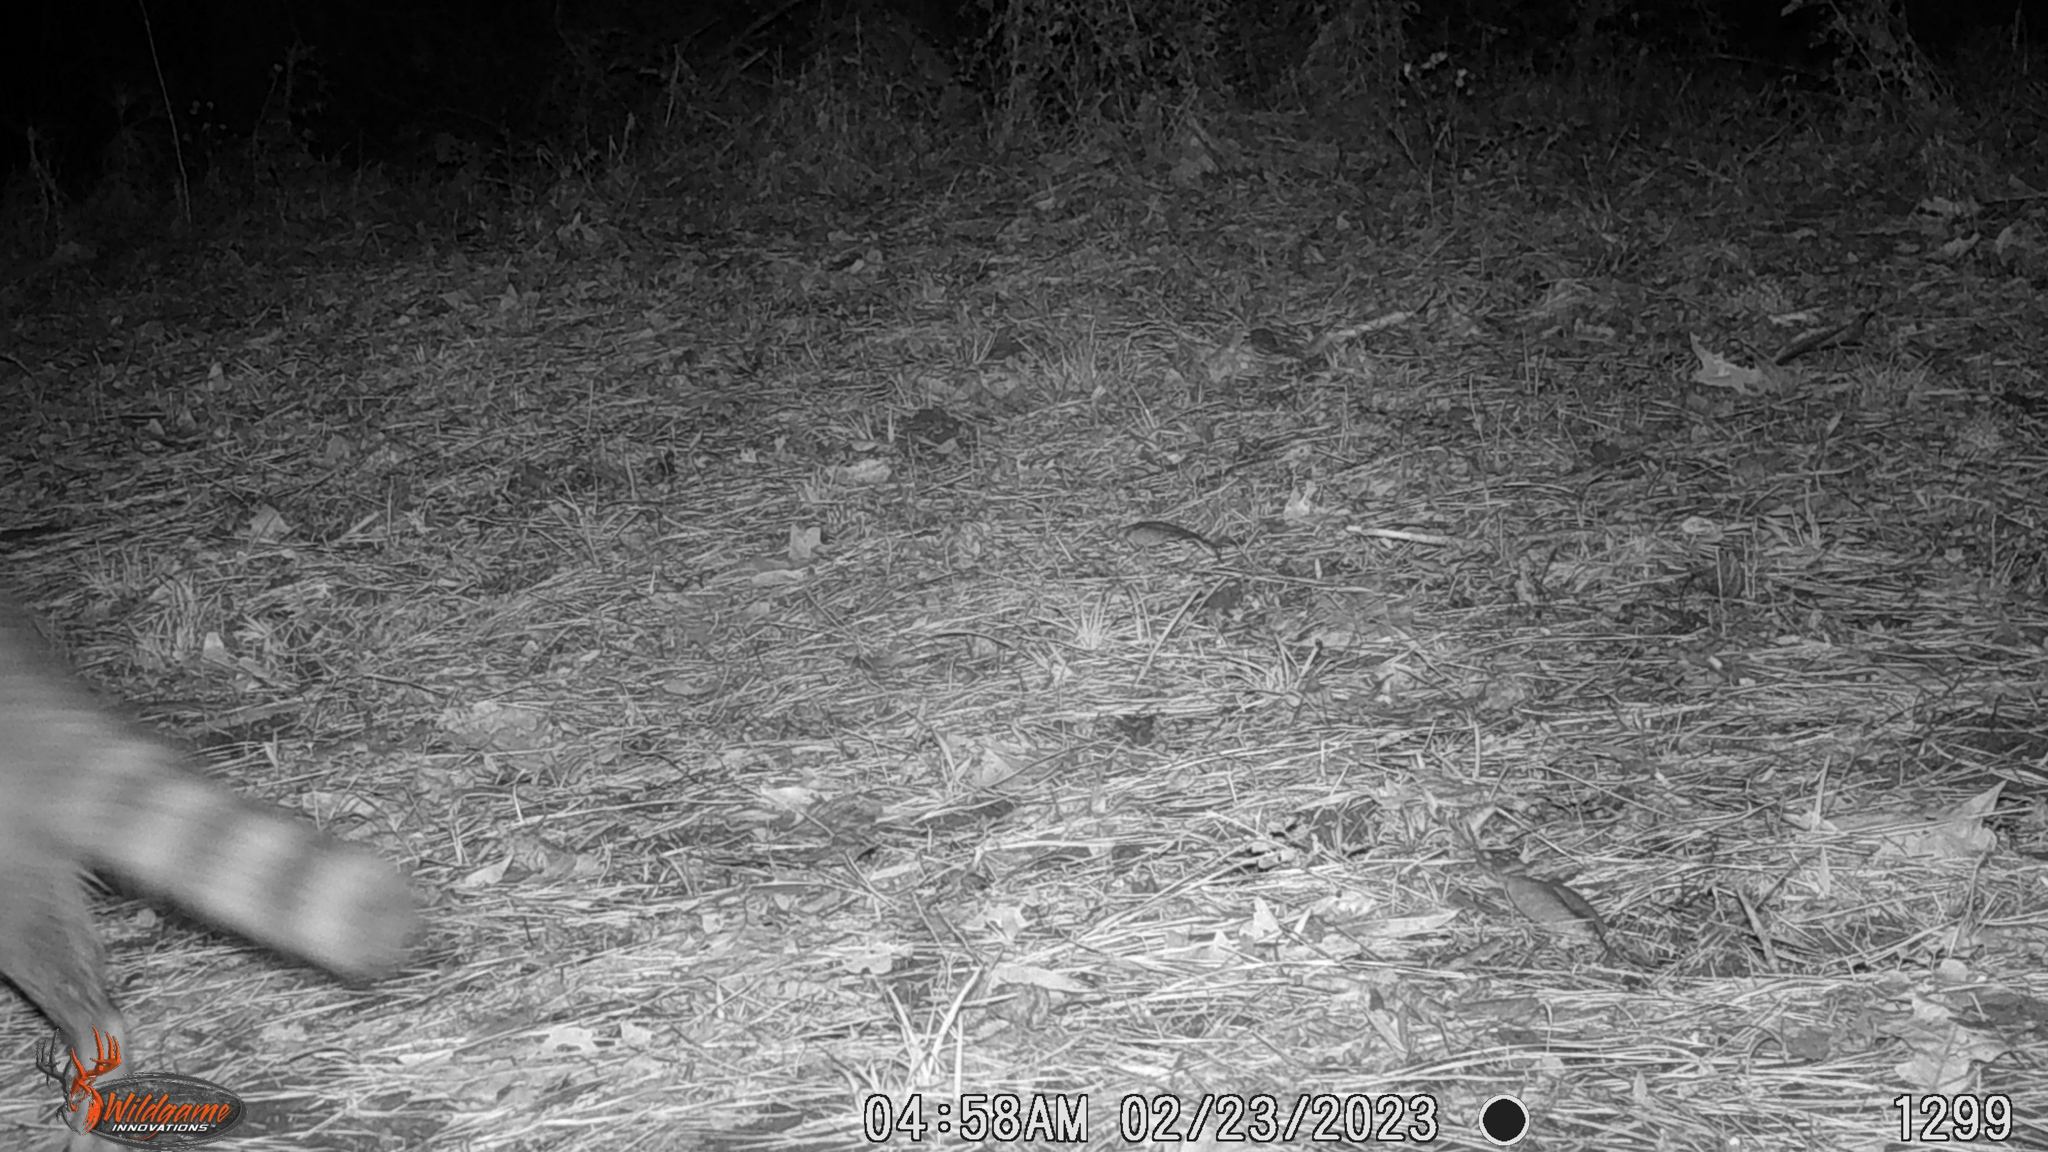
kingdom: Animalia
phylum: Chordata
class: Mammalia
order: Carnivora
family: Procyonidae
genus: Procyon
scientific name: Procyon lotor
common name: Raccoon
